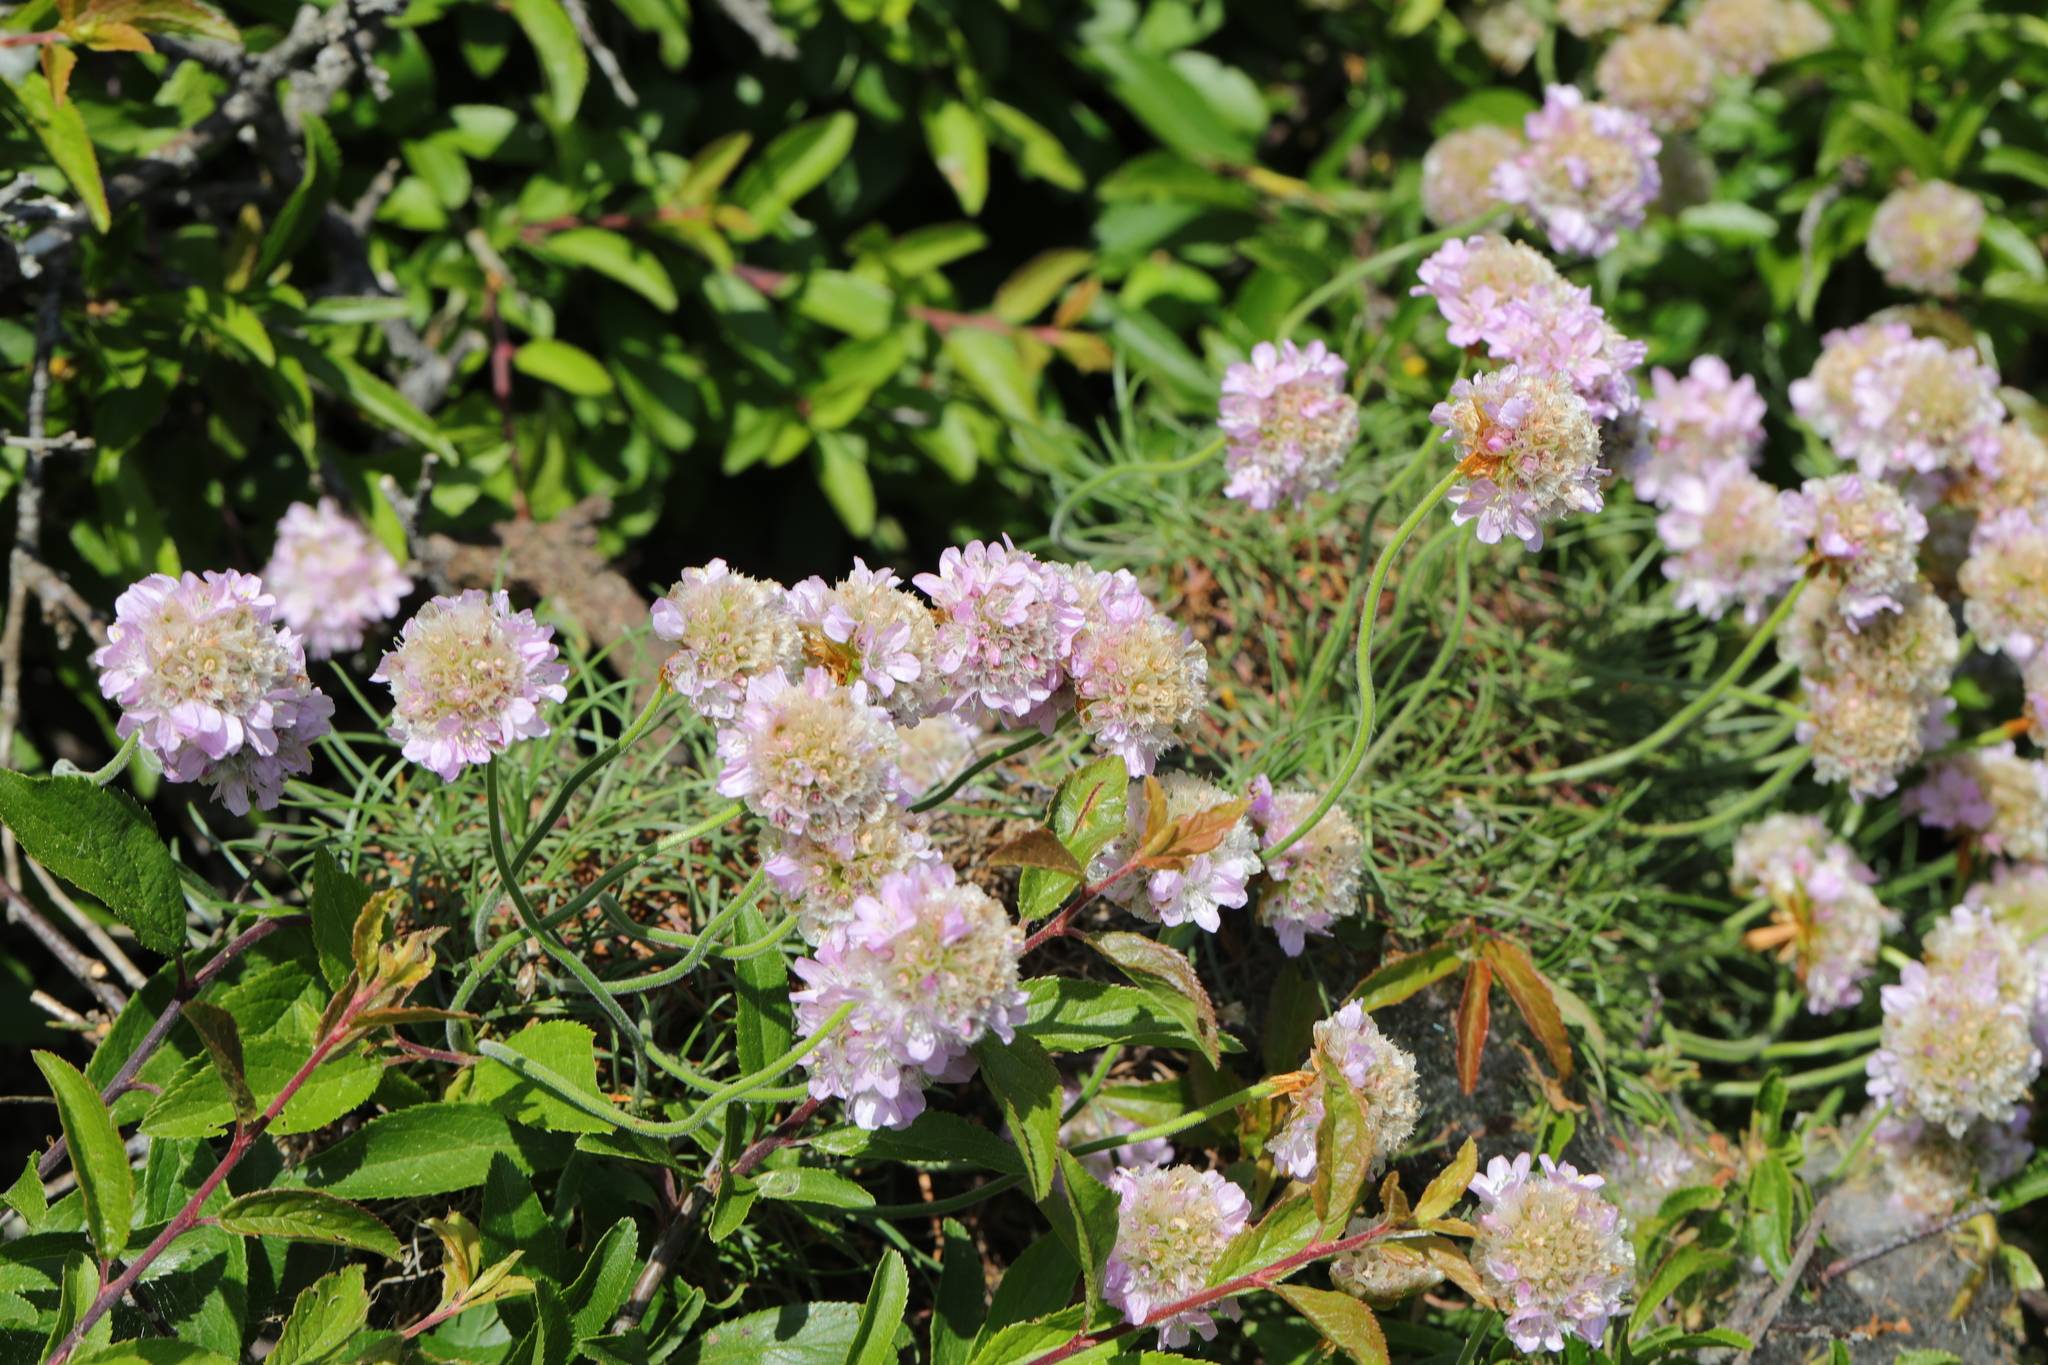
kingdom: Plantae
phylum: Tracheophyta
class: Magnoliopsida
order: Caryophyllales
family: Plumbaginaceae
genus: Armeria
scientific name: Armeria maritima
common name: Thrift
